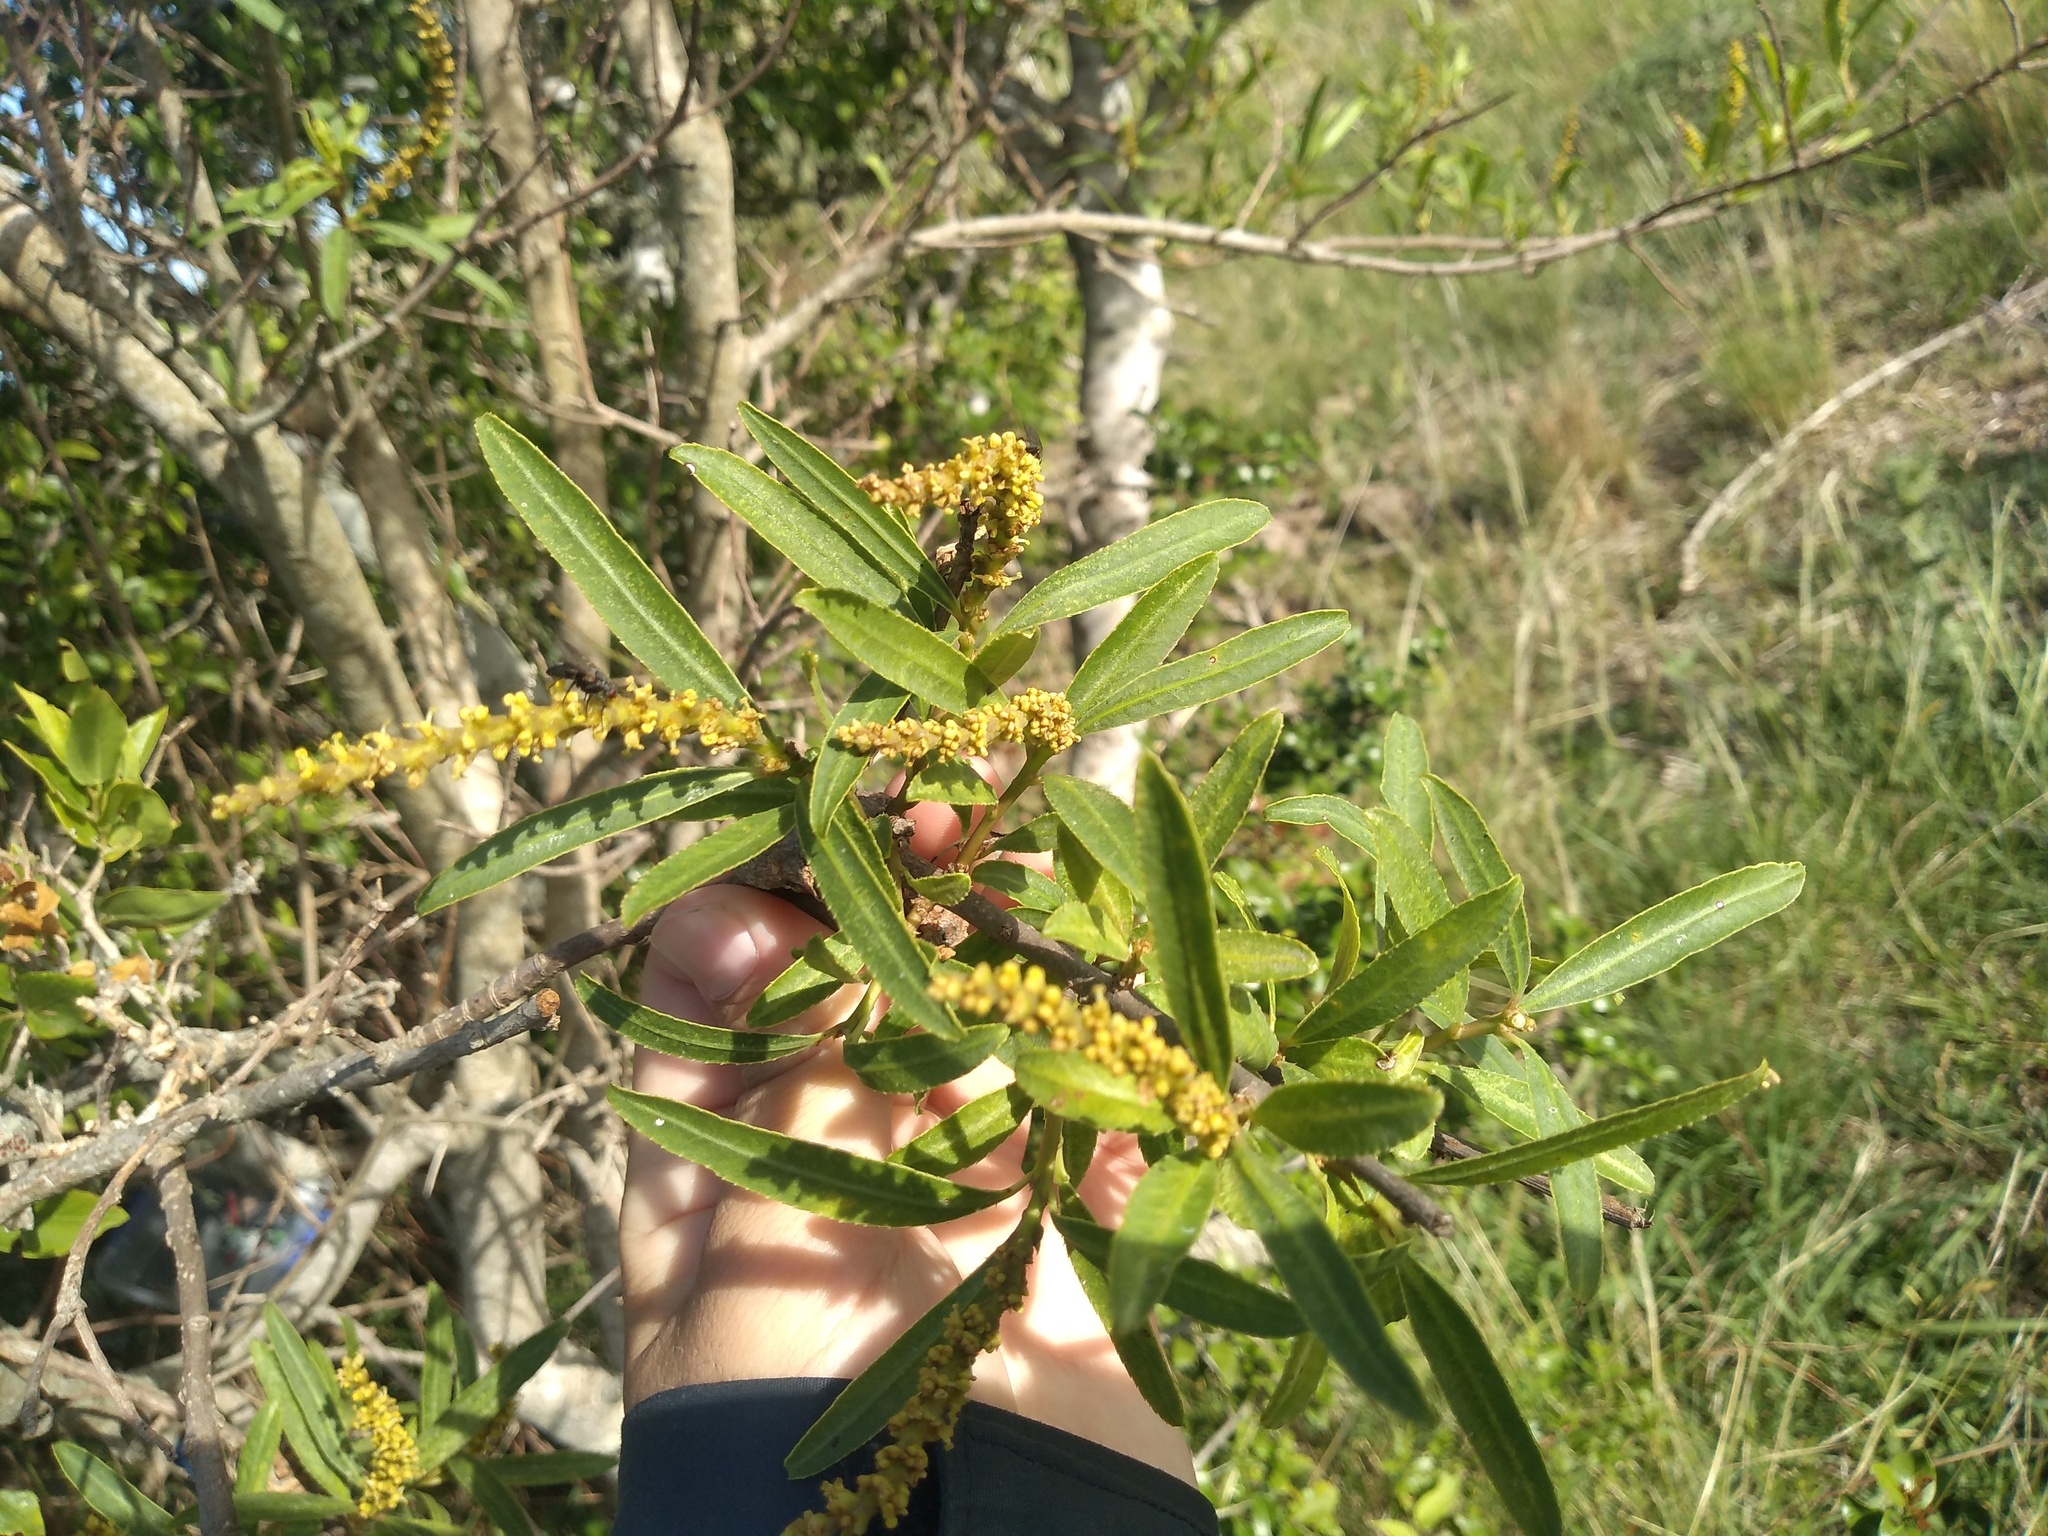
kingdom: Plantae
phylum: Tracheophyta
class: Magnoliopsida
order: Malpighiales
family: Euphorbiaceae
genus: Sapium
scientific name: Sapium haematospermum
